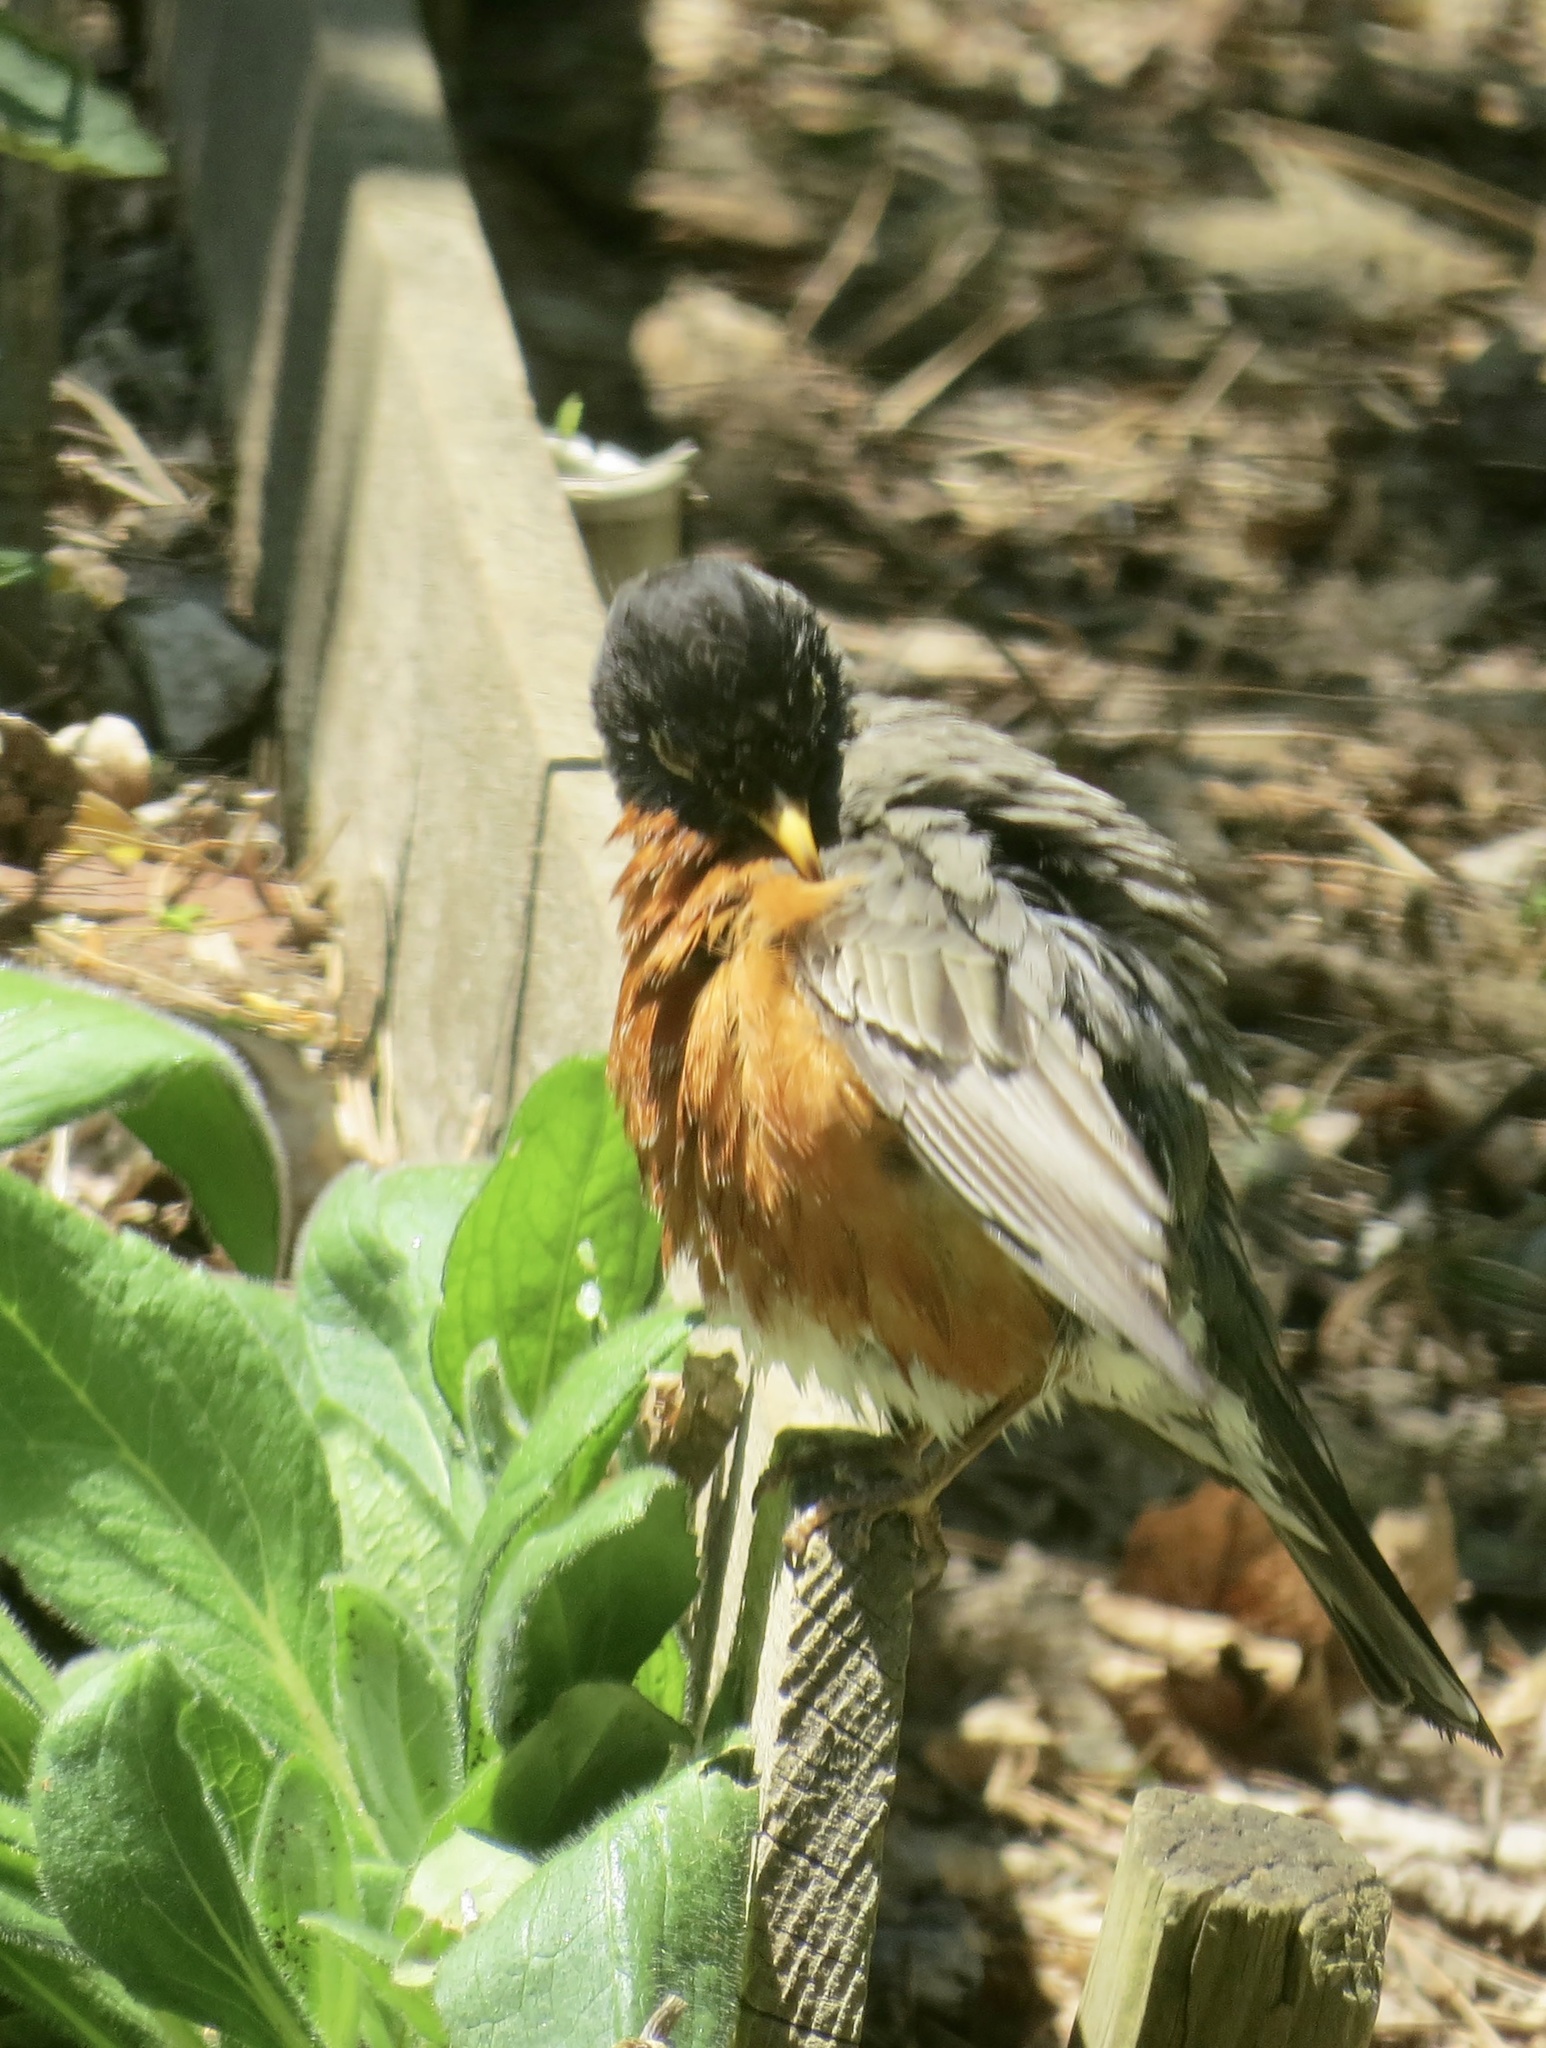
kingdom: Animalia
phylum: Chordata
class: Aves
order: Passeriformes
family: Turdidae
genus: Turdus
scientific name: Turdus migratorius
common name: American robin
